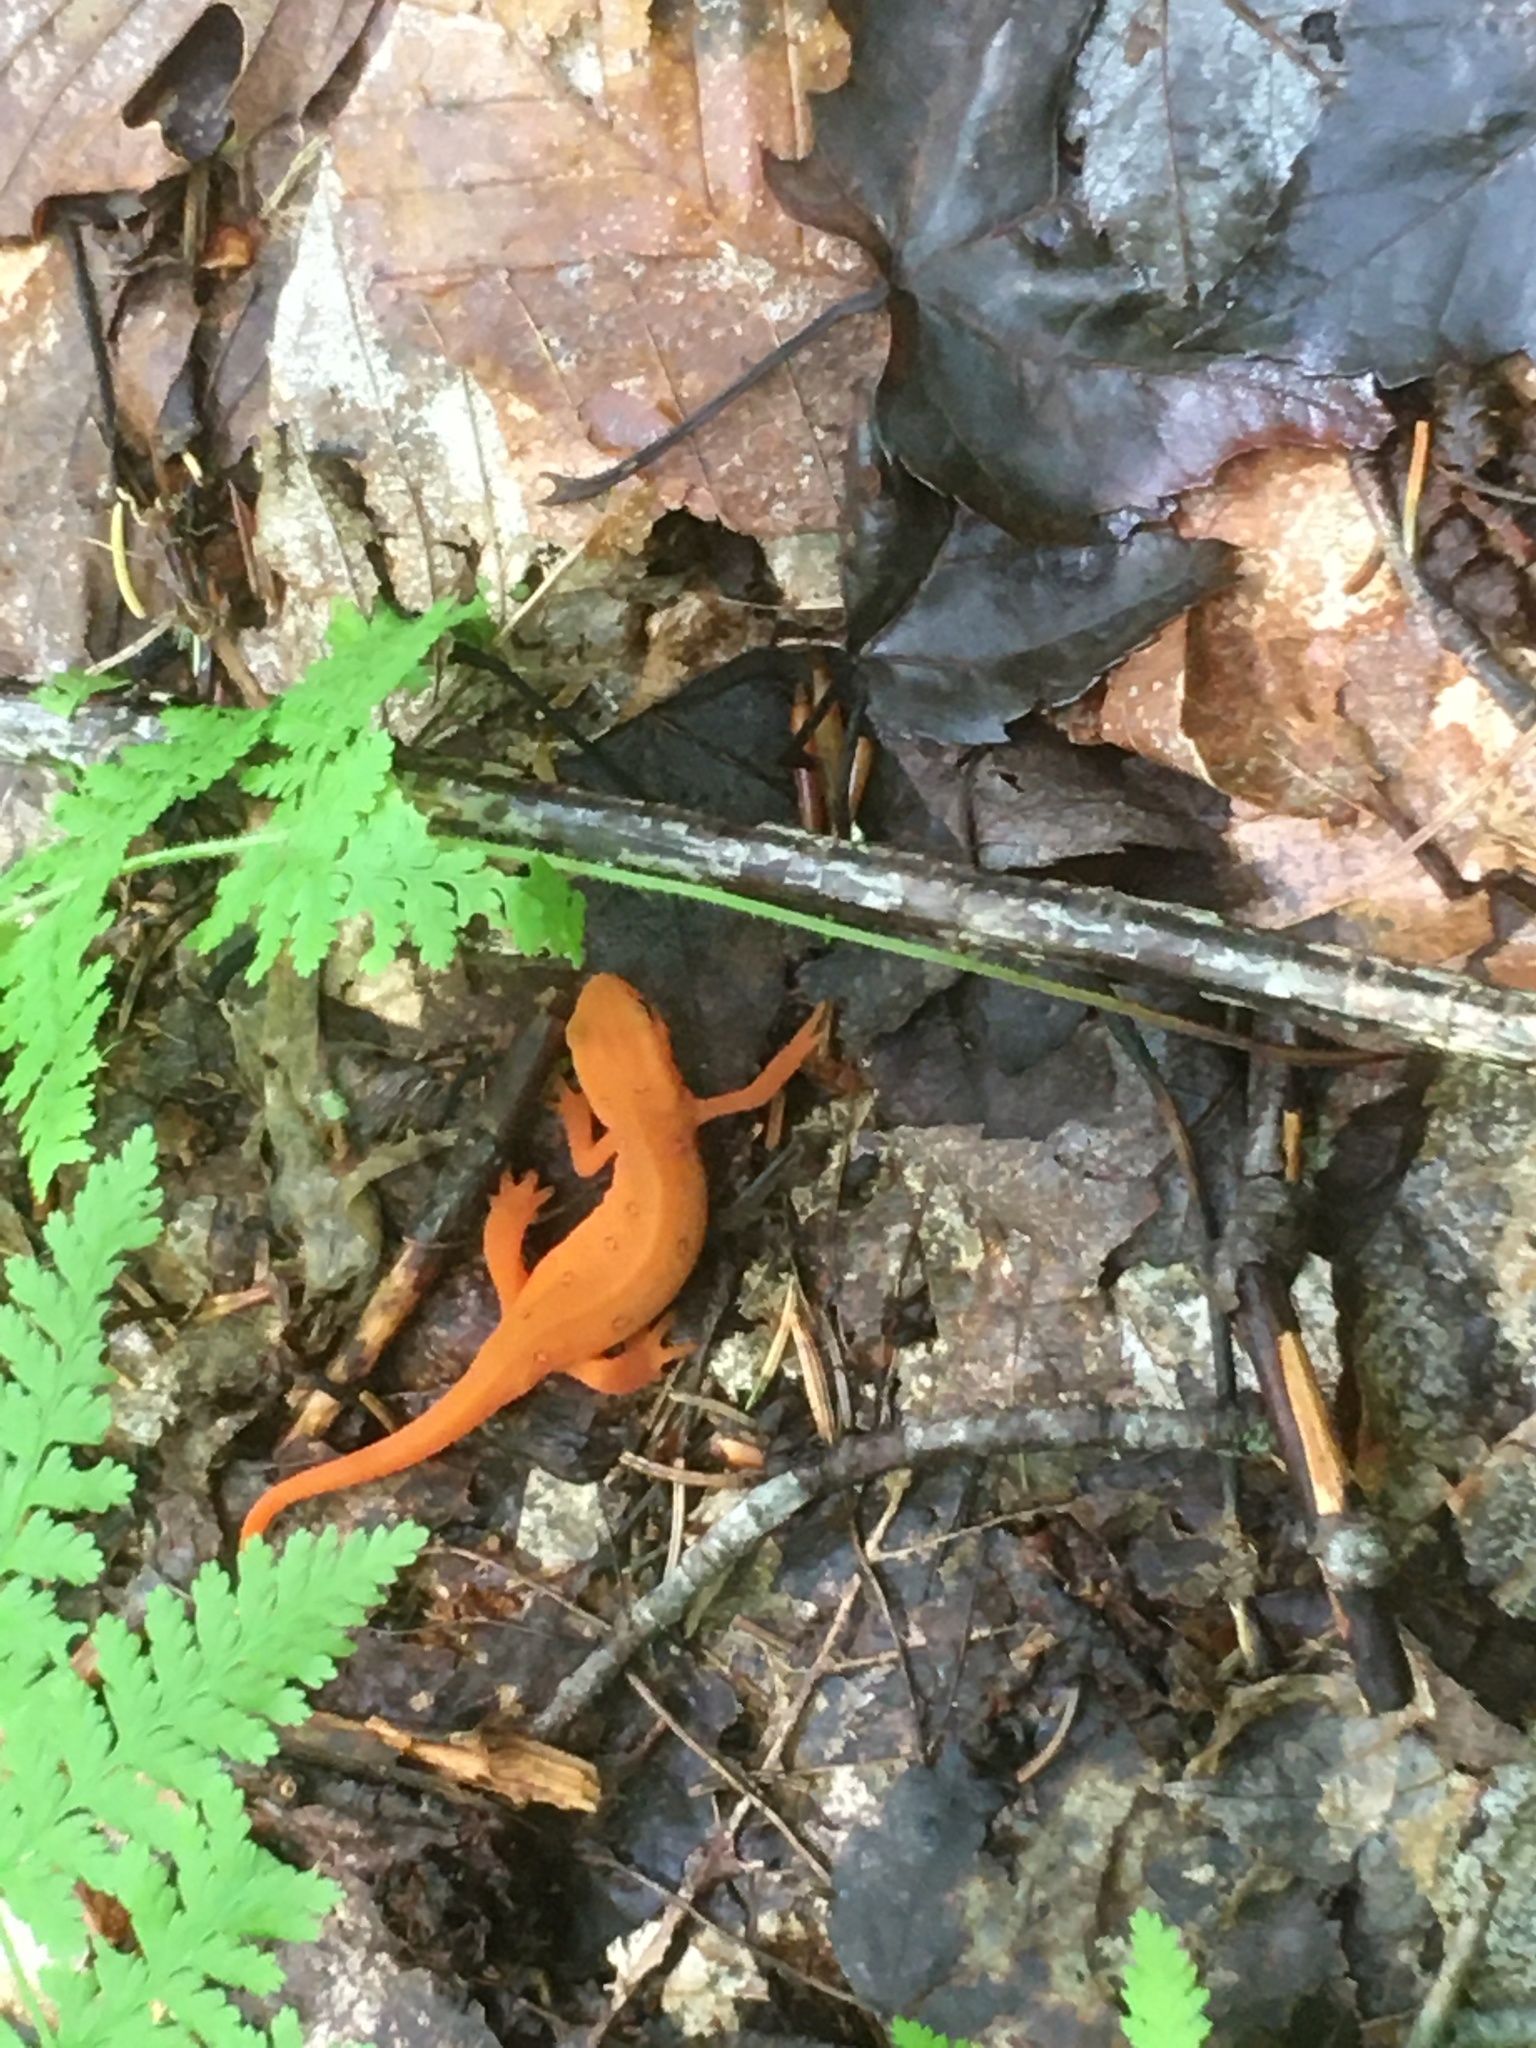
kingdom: Animalia
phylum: Chordata
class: Amphibia
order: Caudata
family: Salamandridae
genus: Notophthalmus
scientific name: Notophthalmus viridescens
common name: Eastern newt
